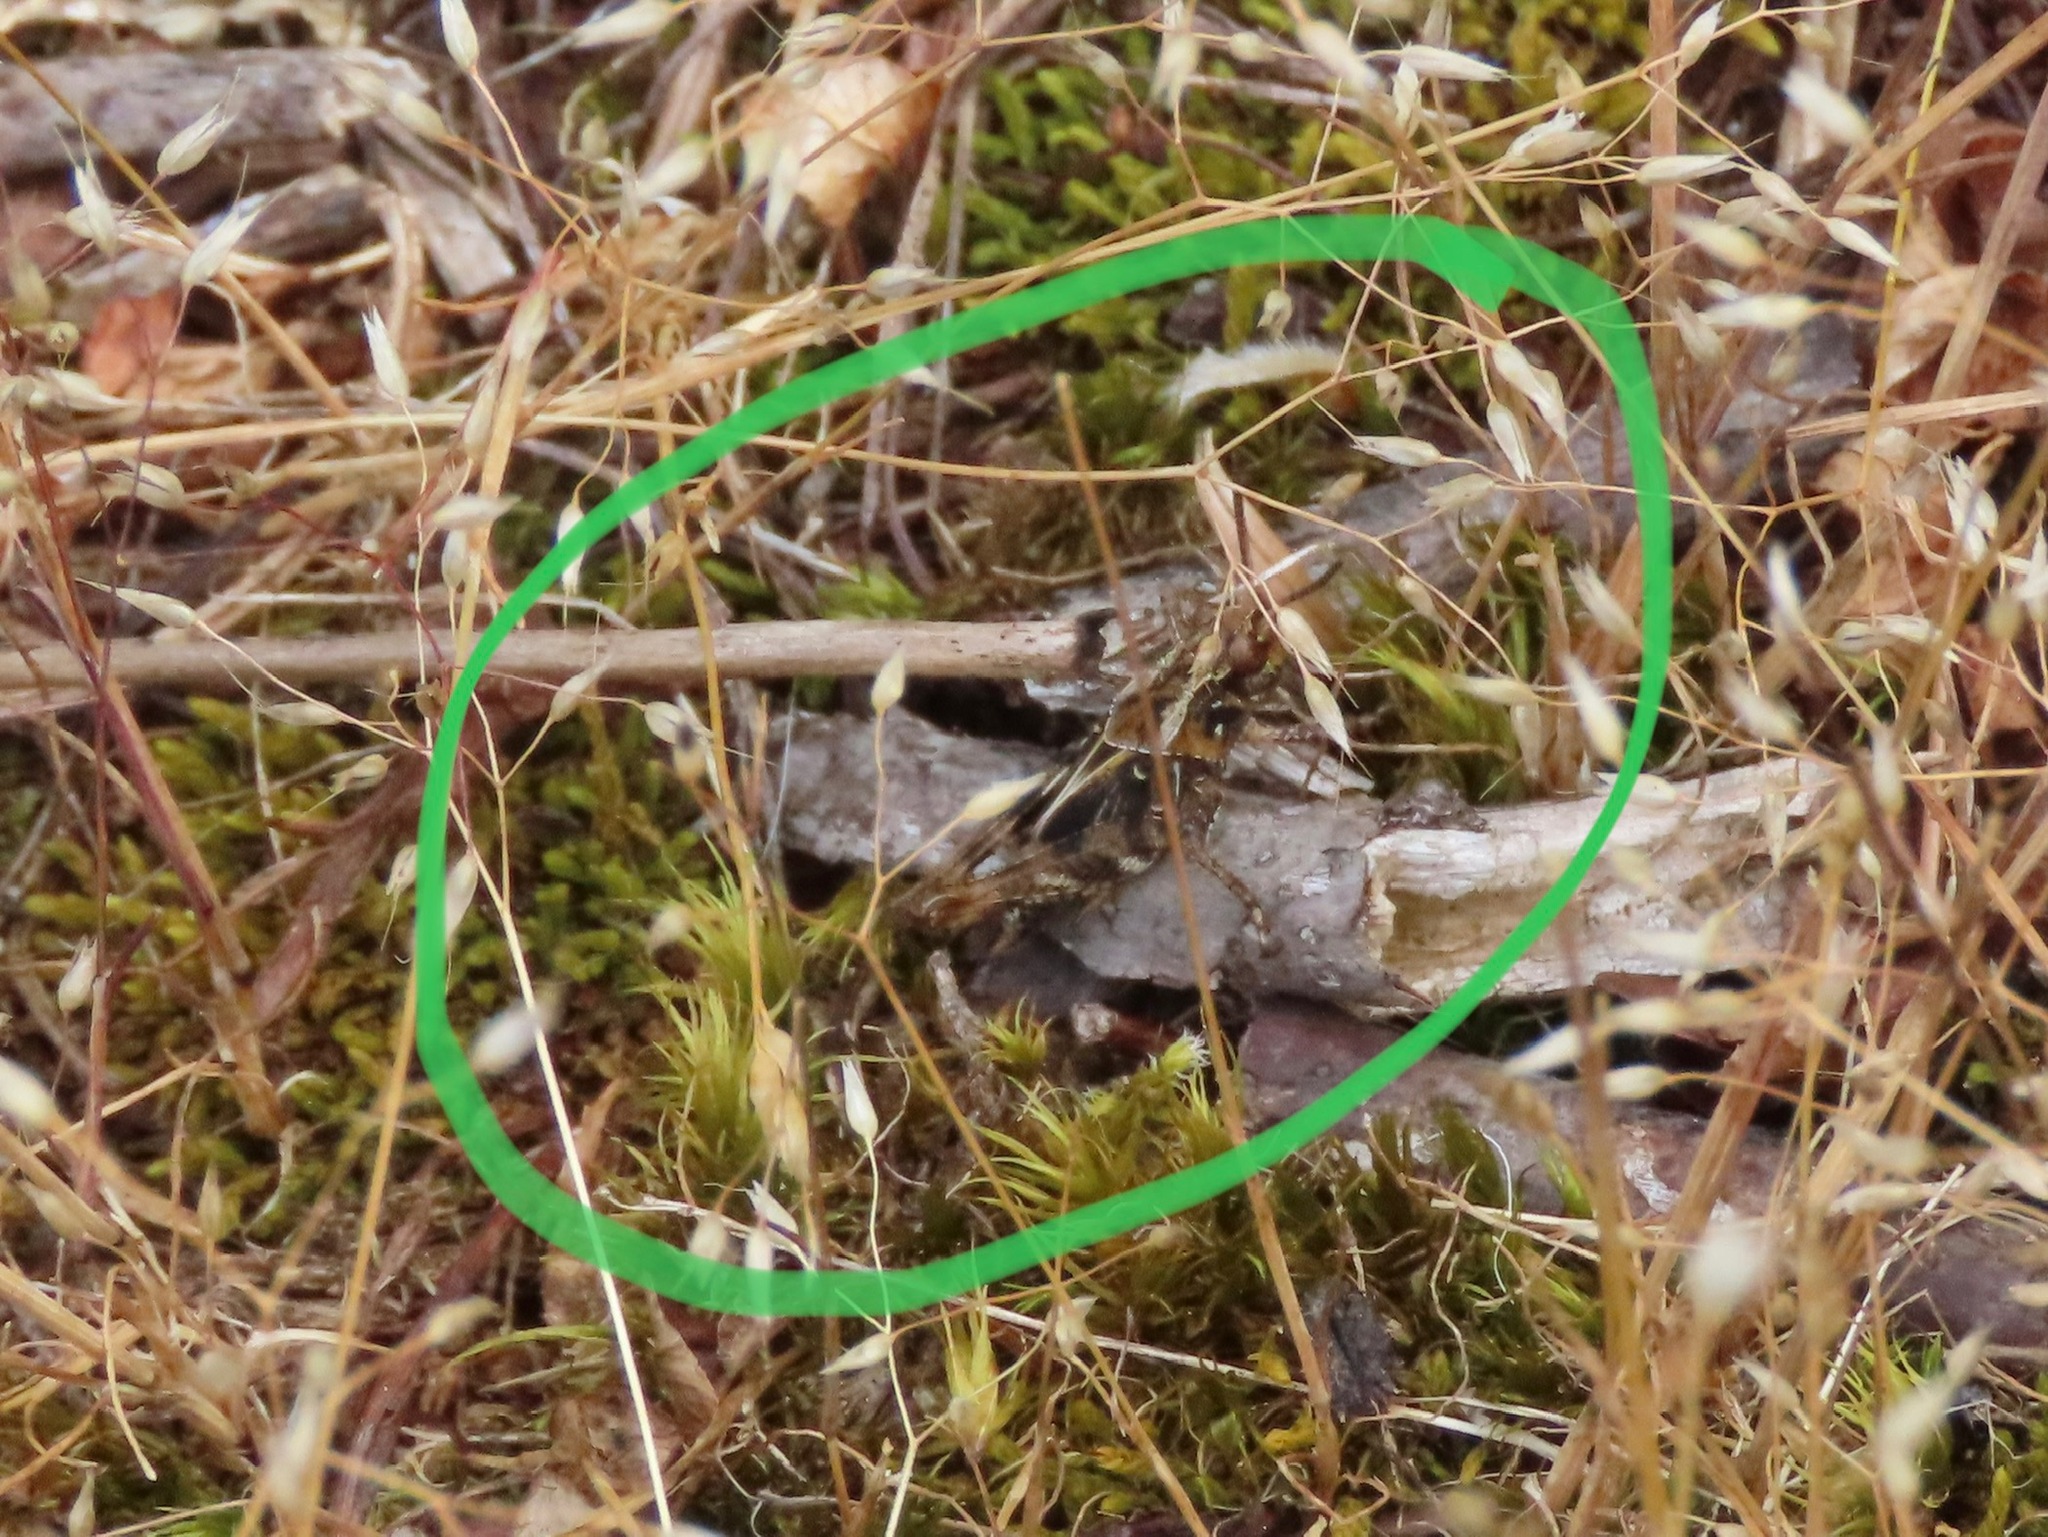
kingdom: Animalia
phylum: Arthropoda
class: Insecta
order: Orthoptera
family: Acrididae
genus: Camnula
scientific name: Camnula pellucida
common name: Clear-winged grasshopper
